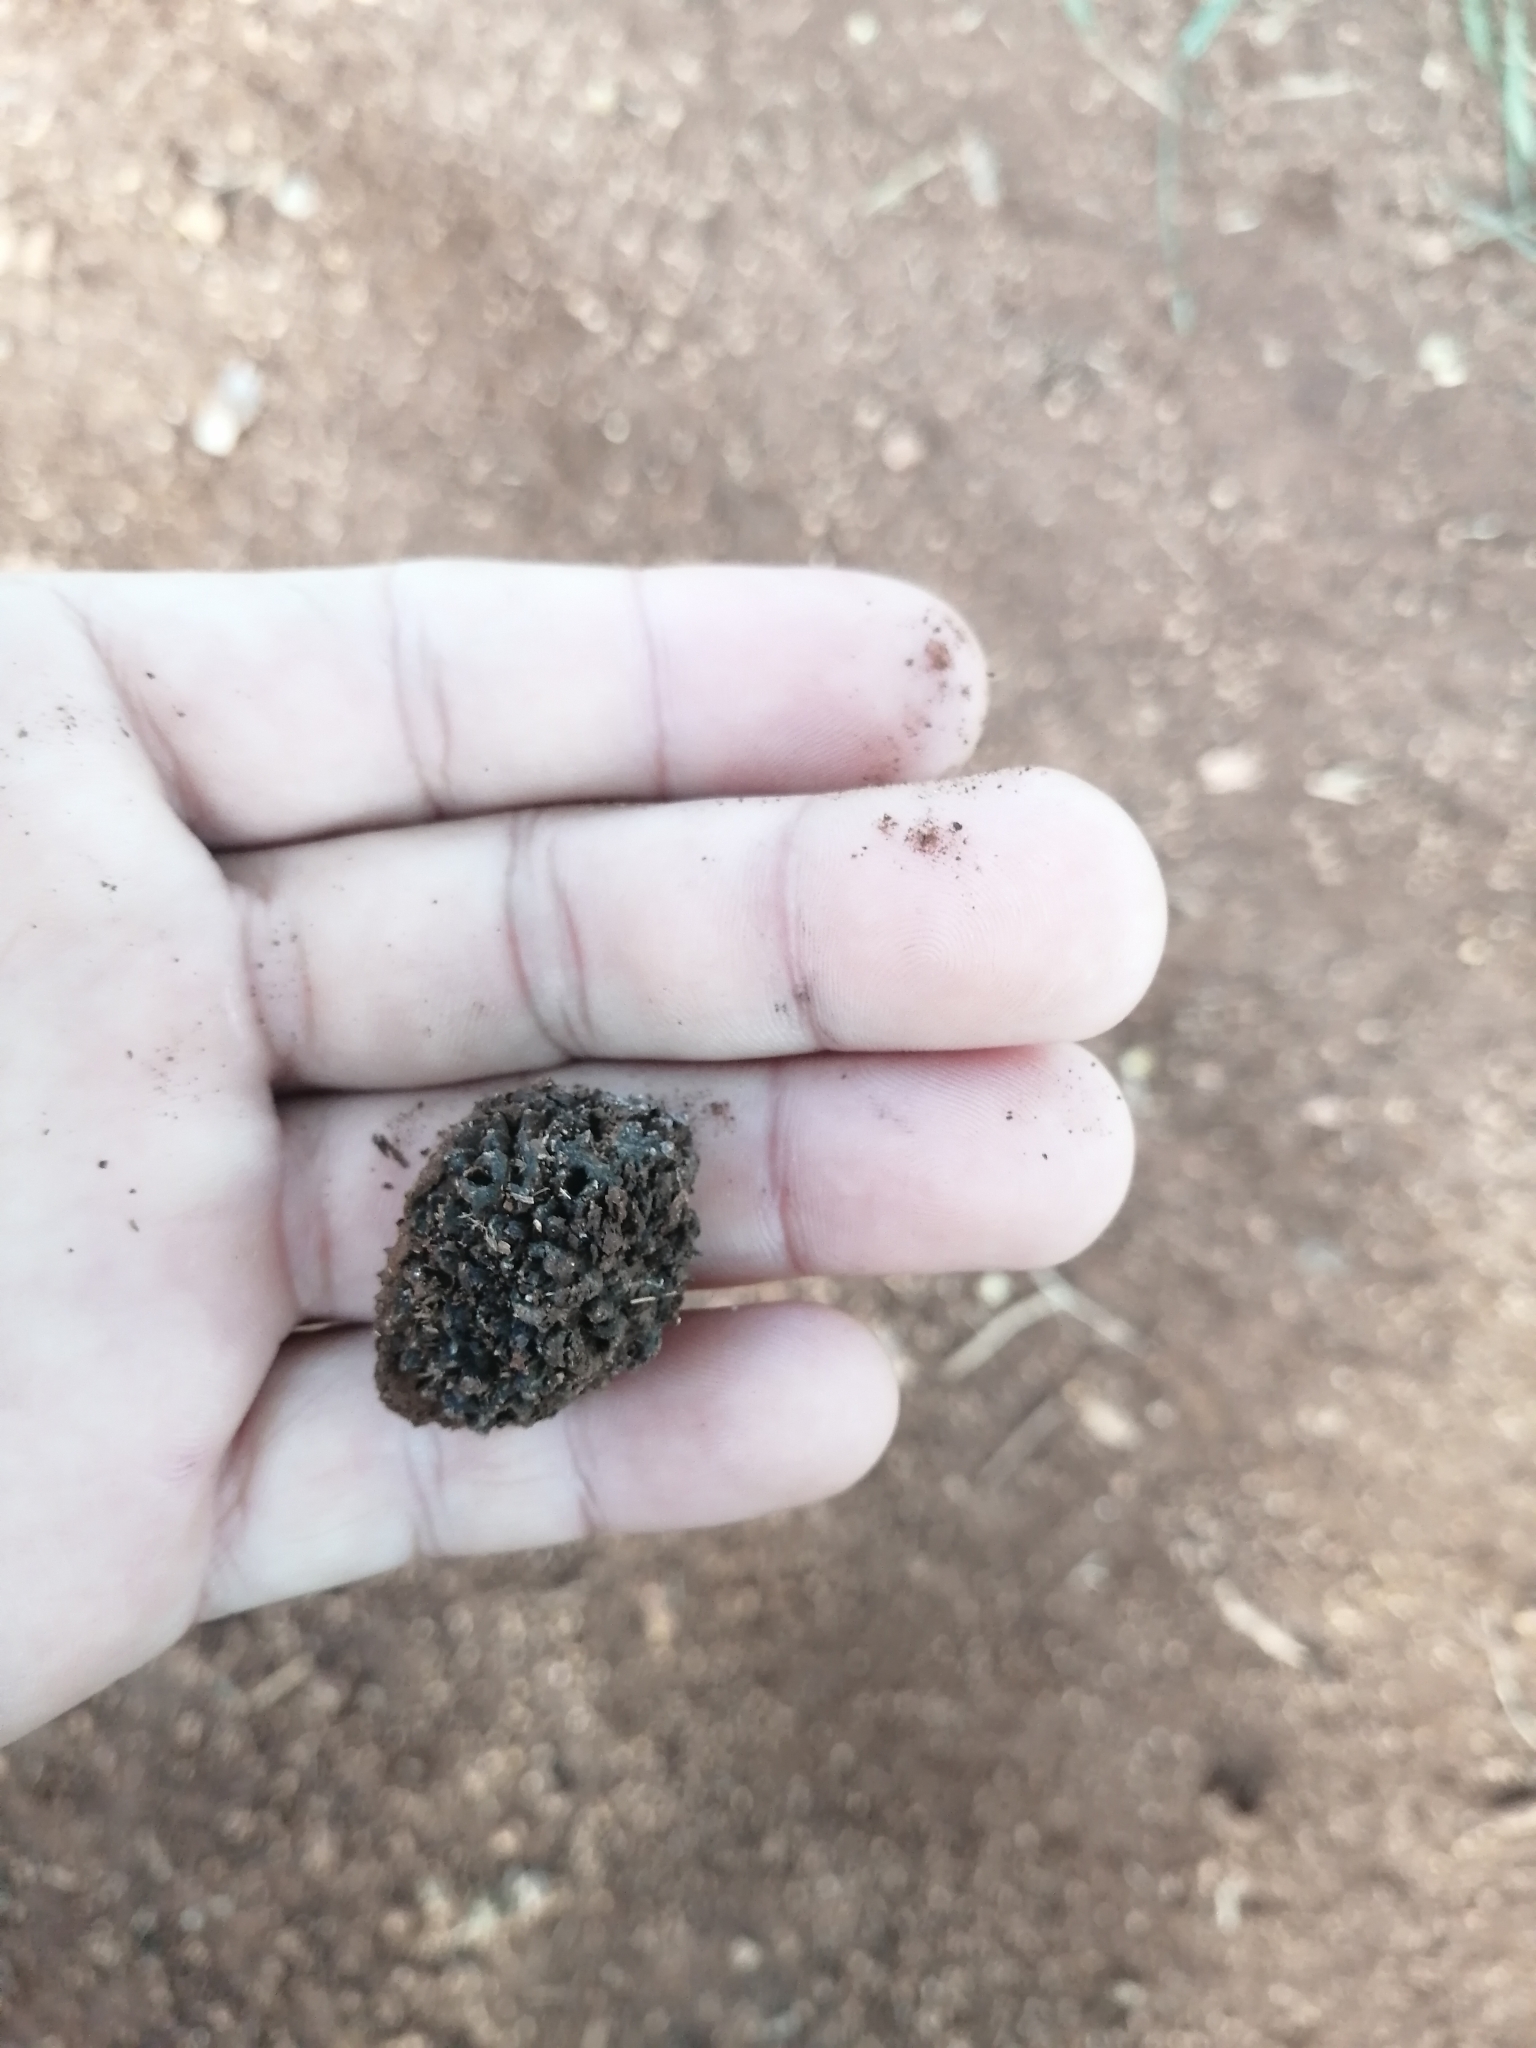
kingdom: Plantae
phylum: Tracheophyta
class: Magnoliopsida
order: Malvales
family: Malvaceae
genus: Guazuma
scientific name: Guazuma ulmifolia
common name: Bastard-cedar
